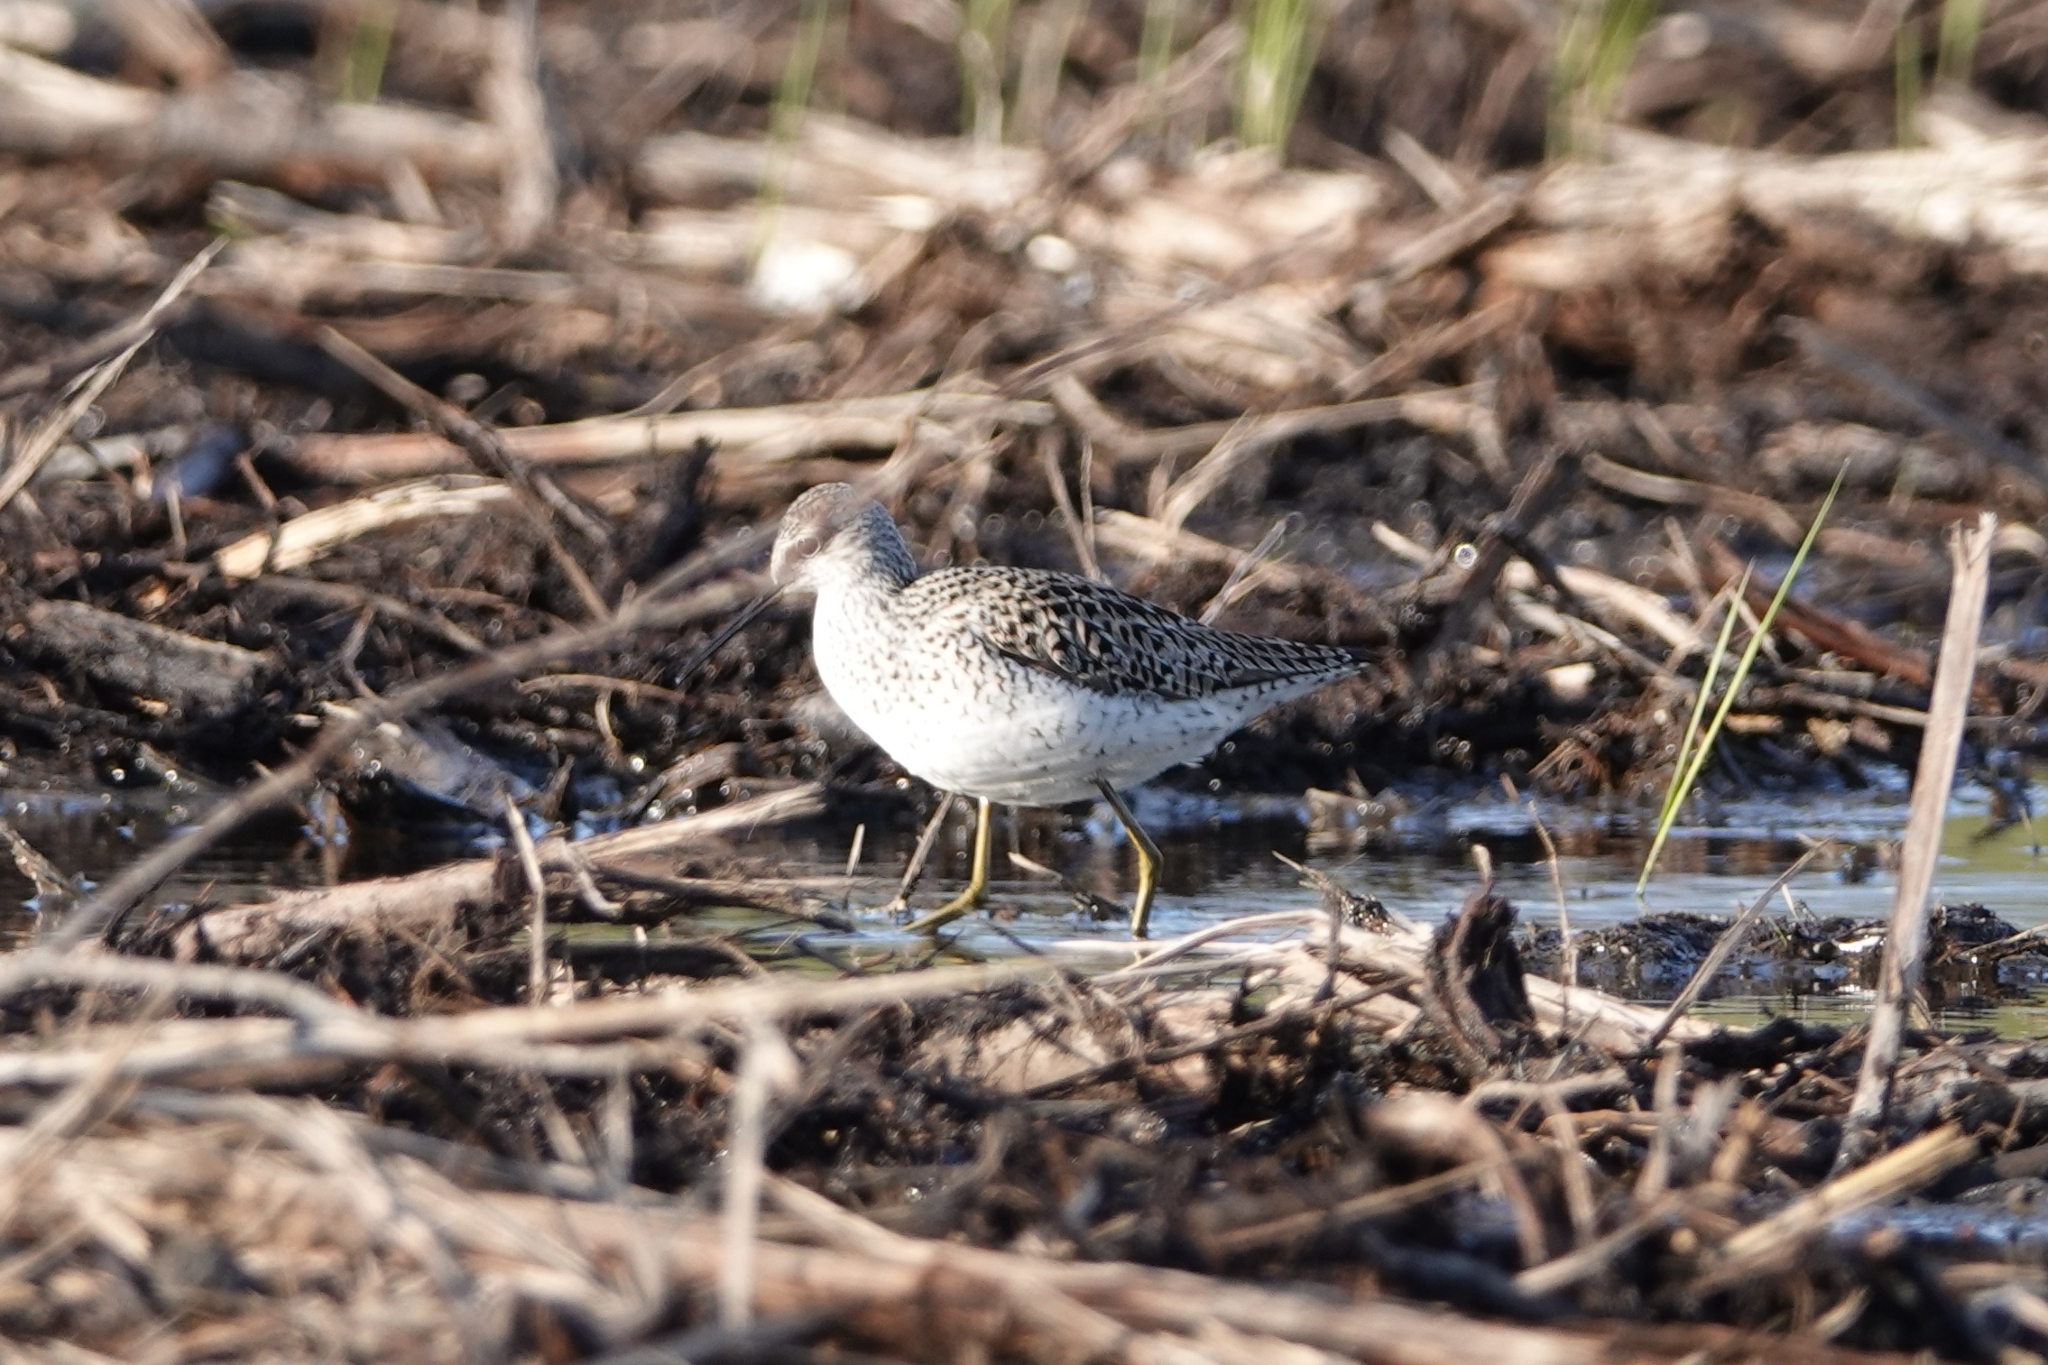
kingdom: Animalia
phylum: Chordata
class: Aves
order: Charadriiformes
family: Scolopacidae
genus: Tringa
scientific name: Tringa stagnatilis
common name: Marsh sandpiper
